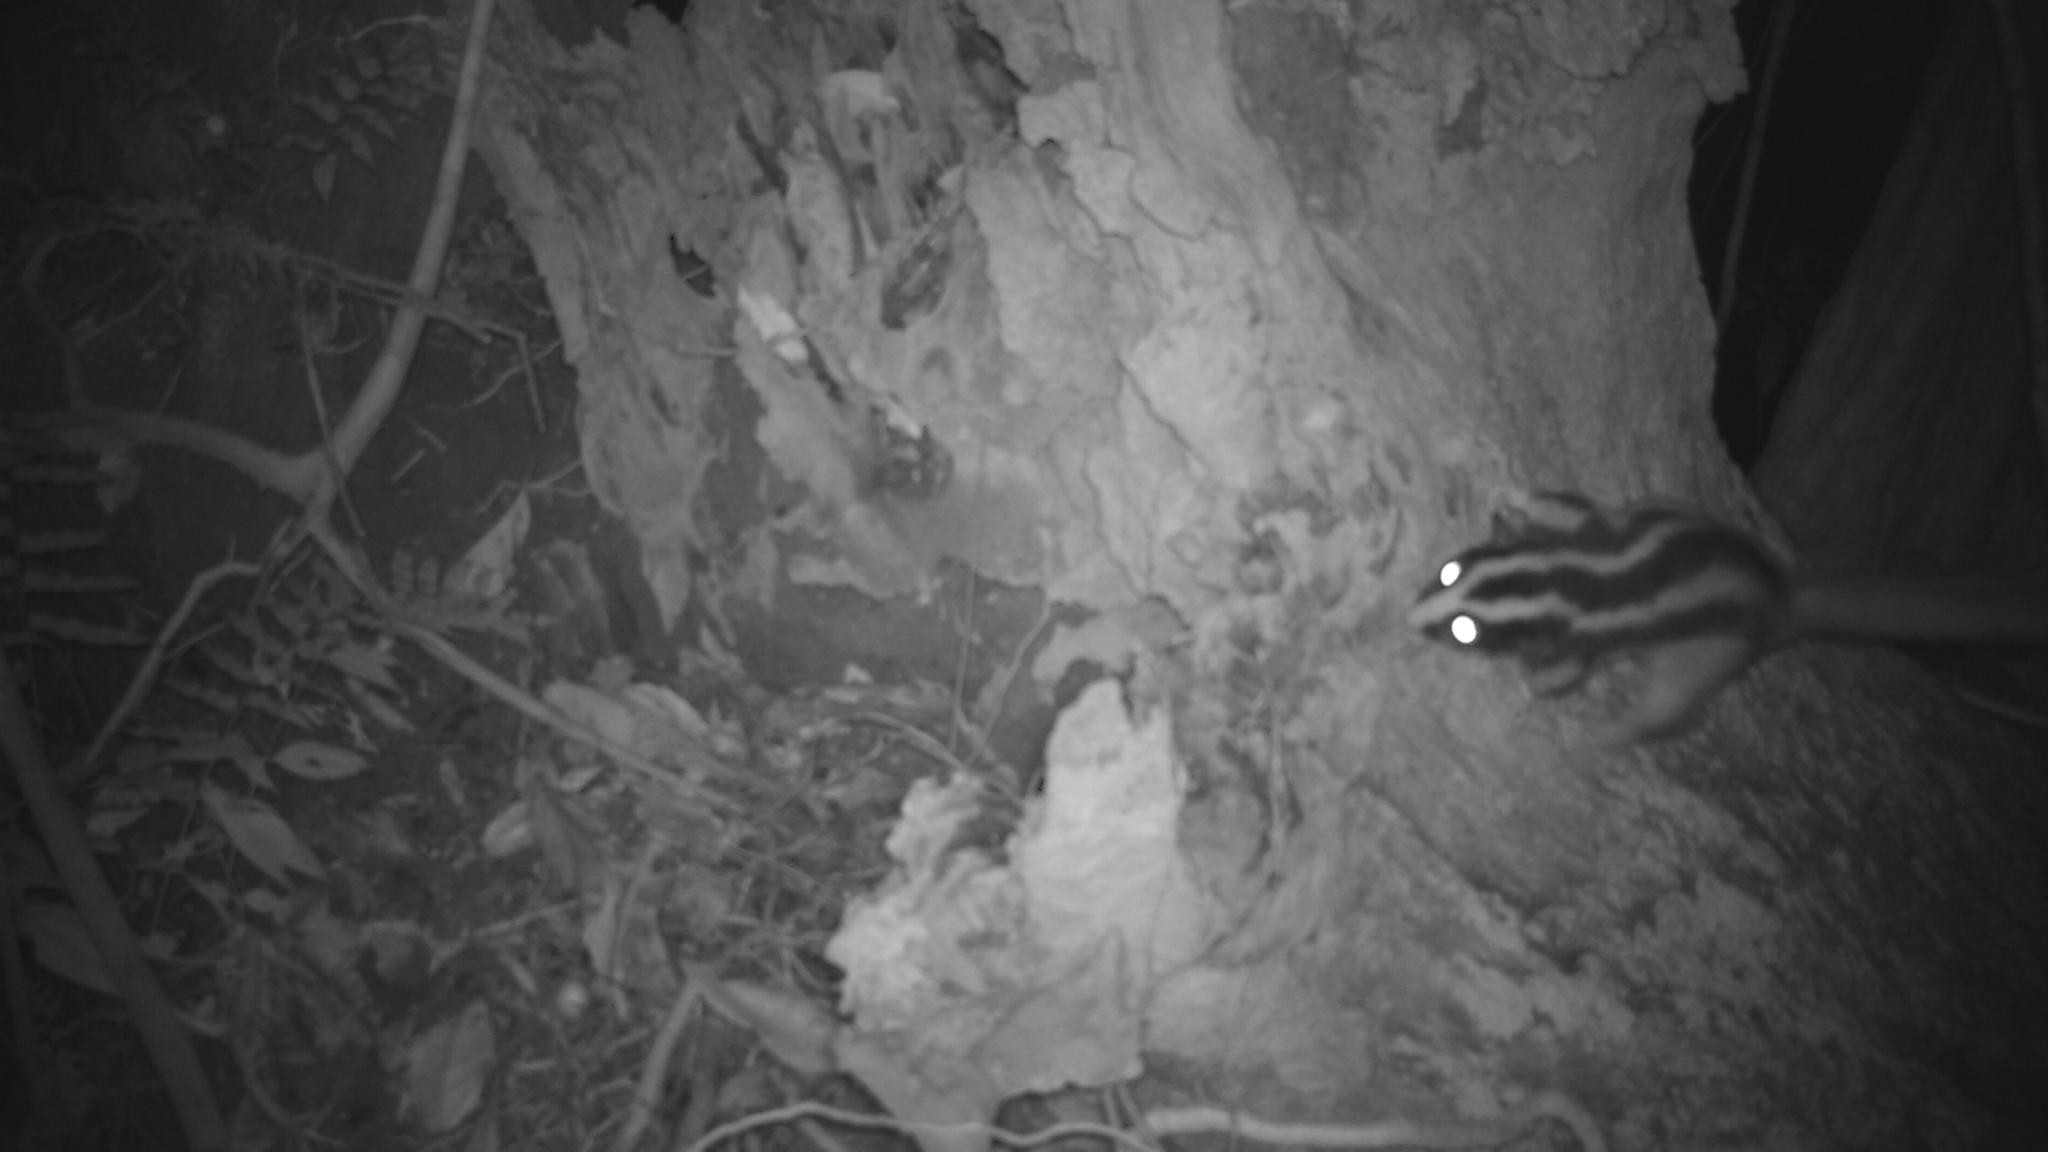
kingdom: Animalia
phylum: Chordata
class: Mammalia
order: Diprotodontia
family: Petauridae
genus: Dactylopsila
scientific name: Dactylopsila trivirgata
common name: Striped possum
